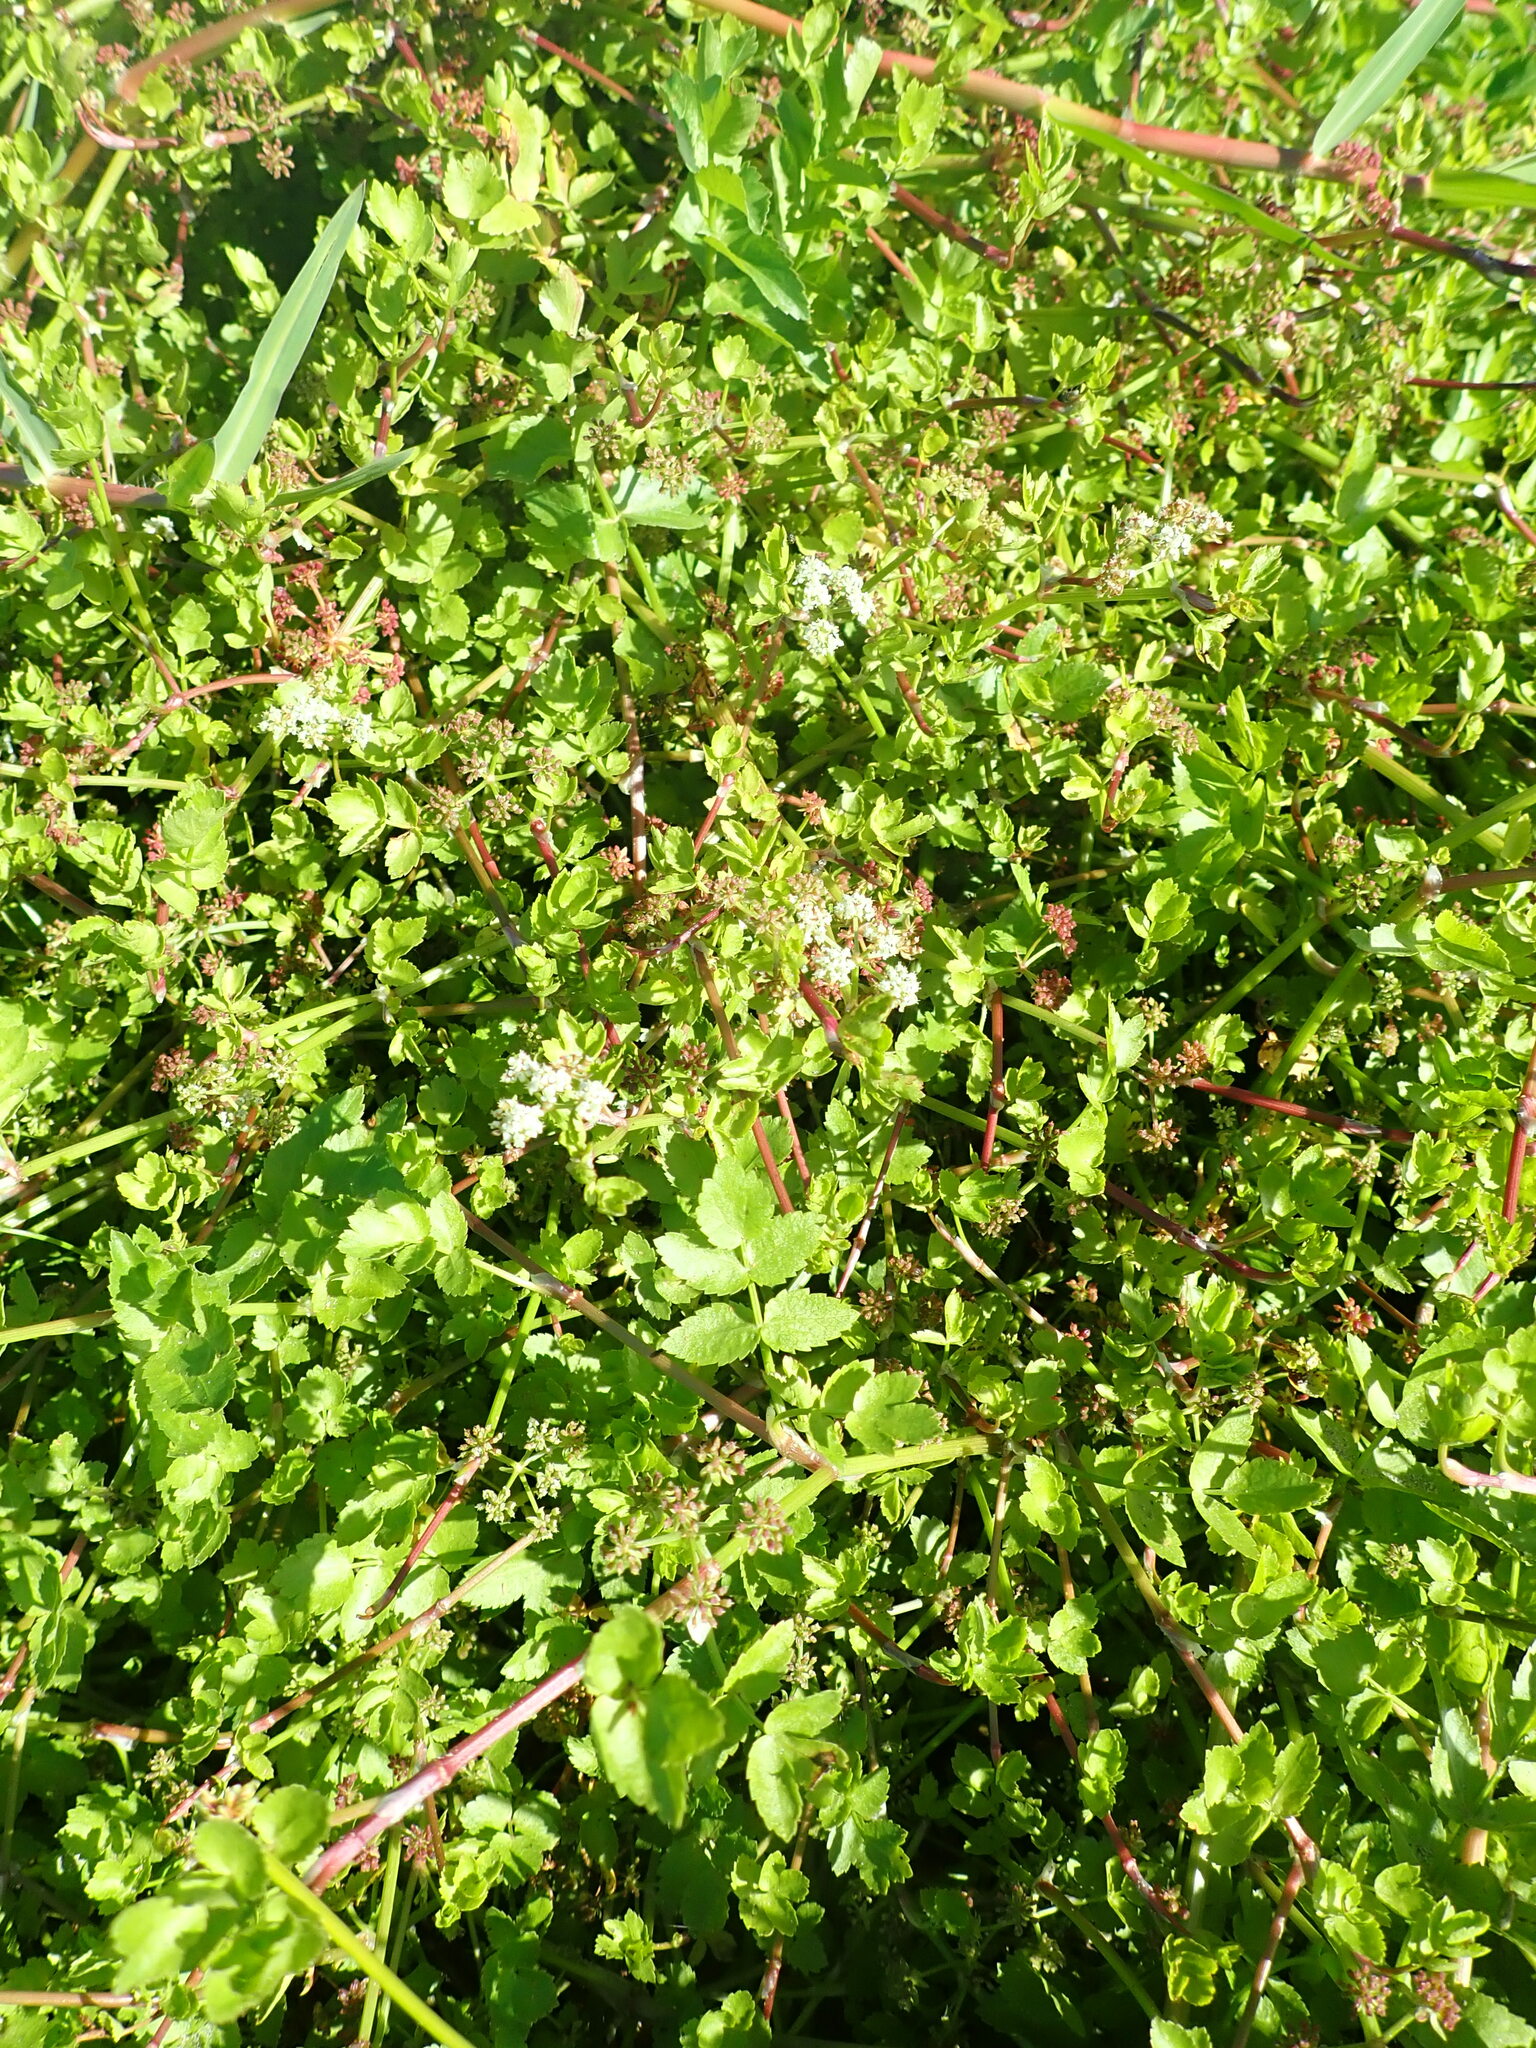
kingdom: Plantae
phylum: Tracheophyta
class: Magnoliopsida
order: Apiales
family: Apiaceae
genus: Helosciadium
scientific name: Helosciadium nodiflorum
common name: Fool's-watercress
